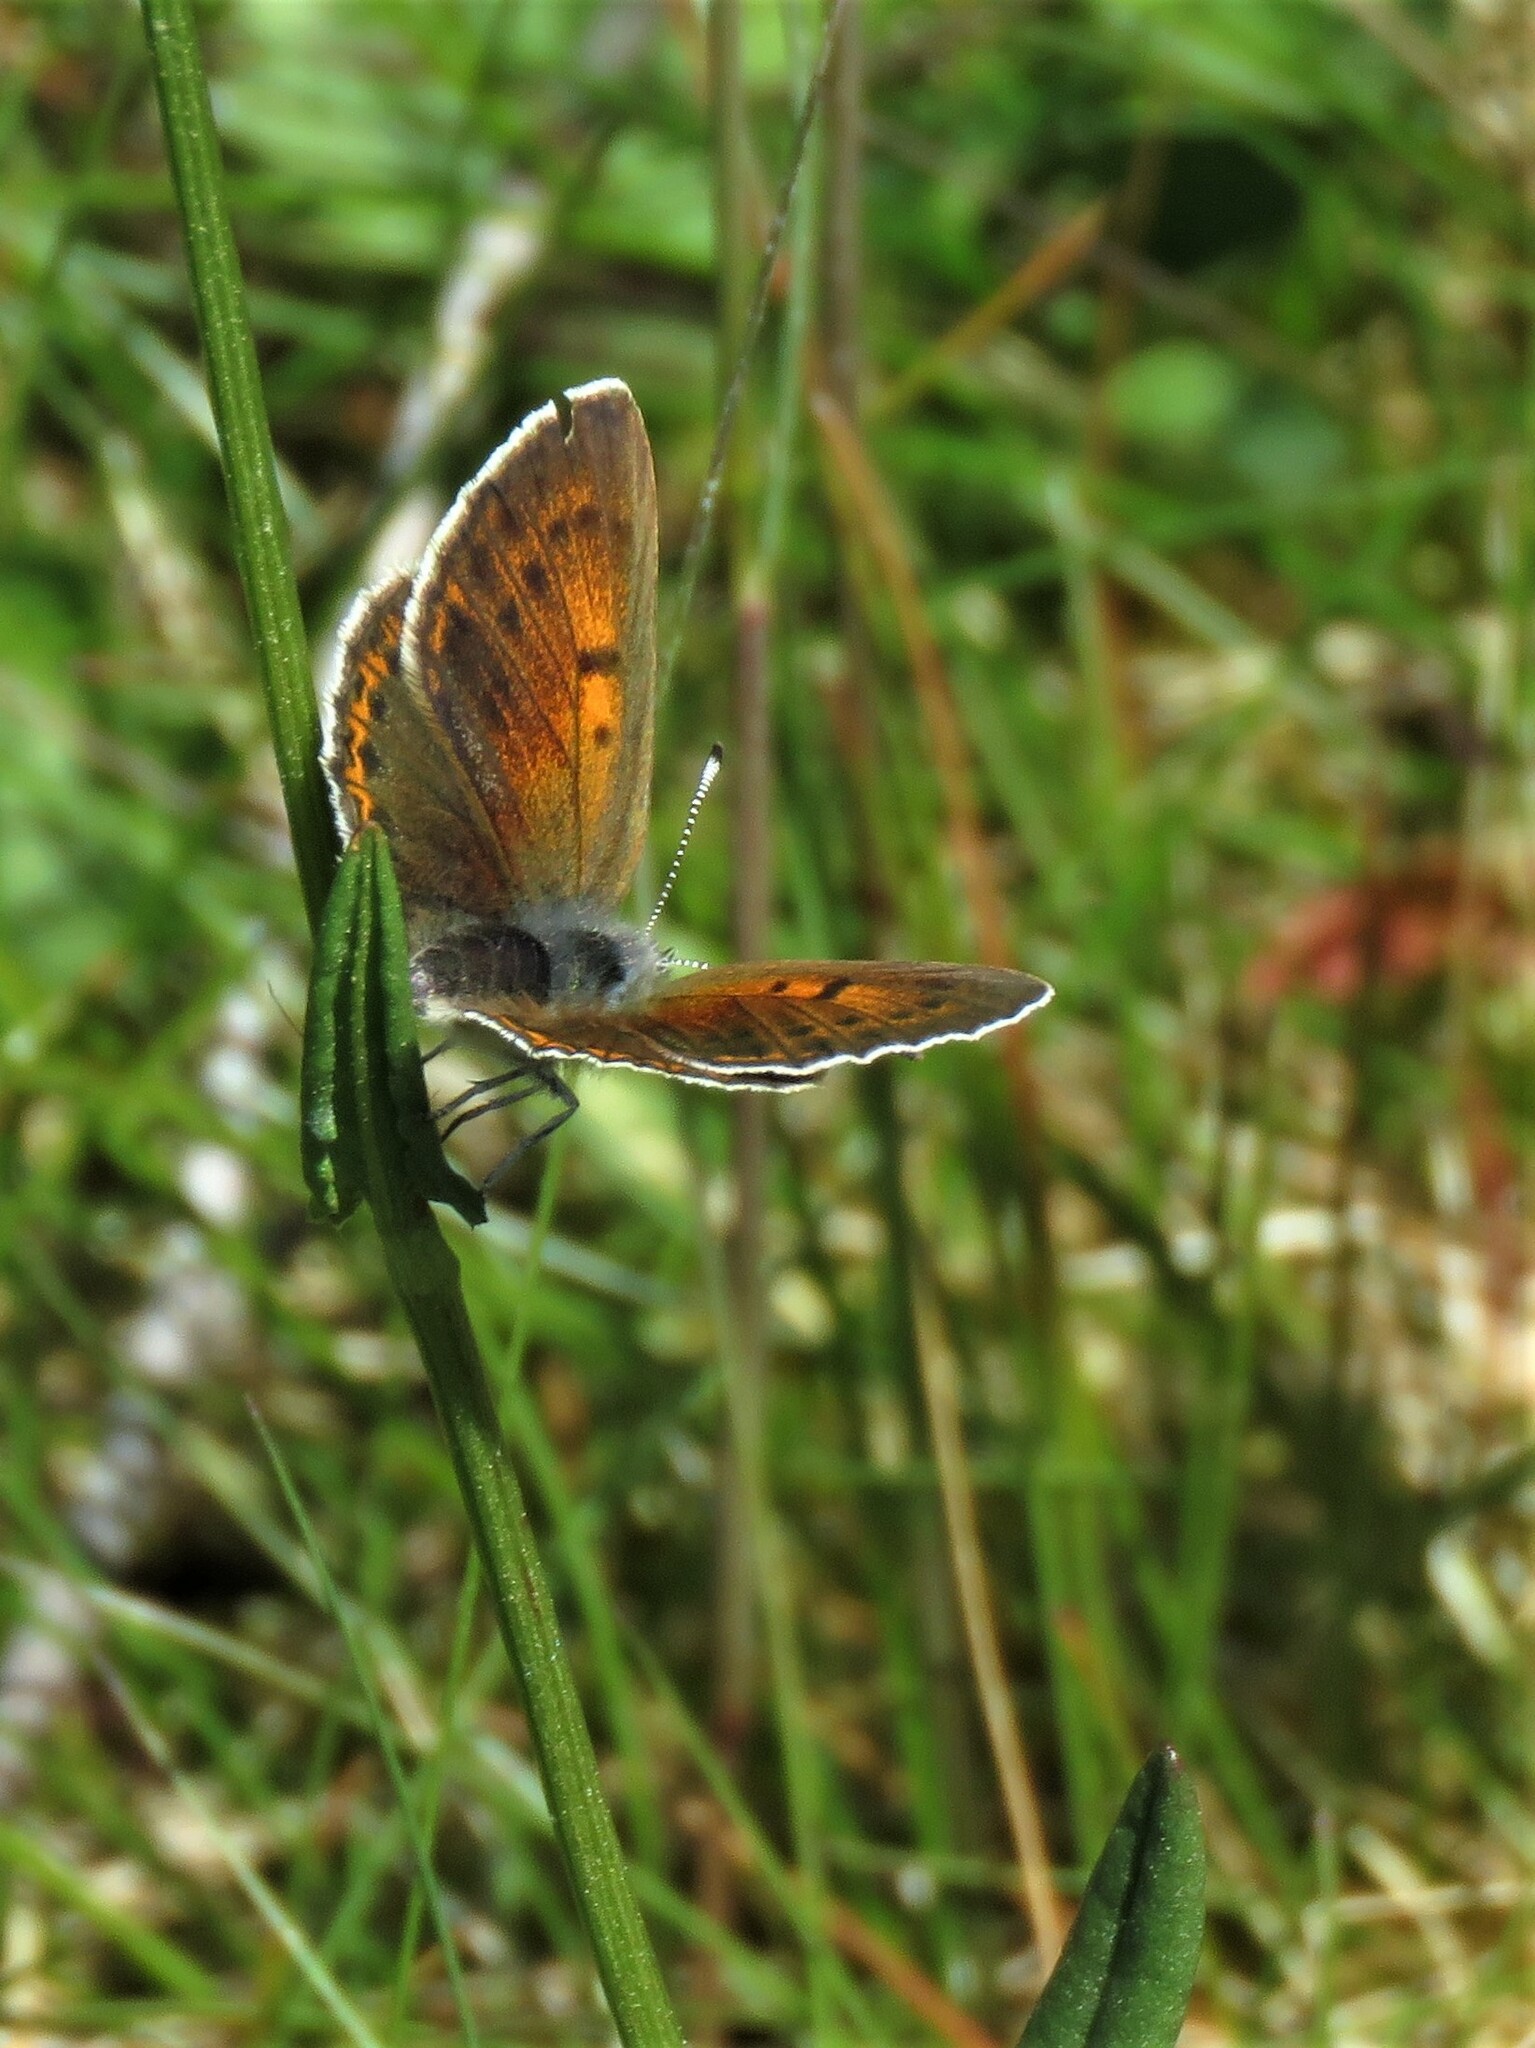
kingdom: Animalia
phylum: Arthropoda
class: Insecta
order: Lepidoptera
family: Lycaenidae
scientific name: Lycaenidae
